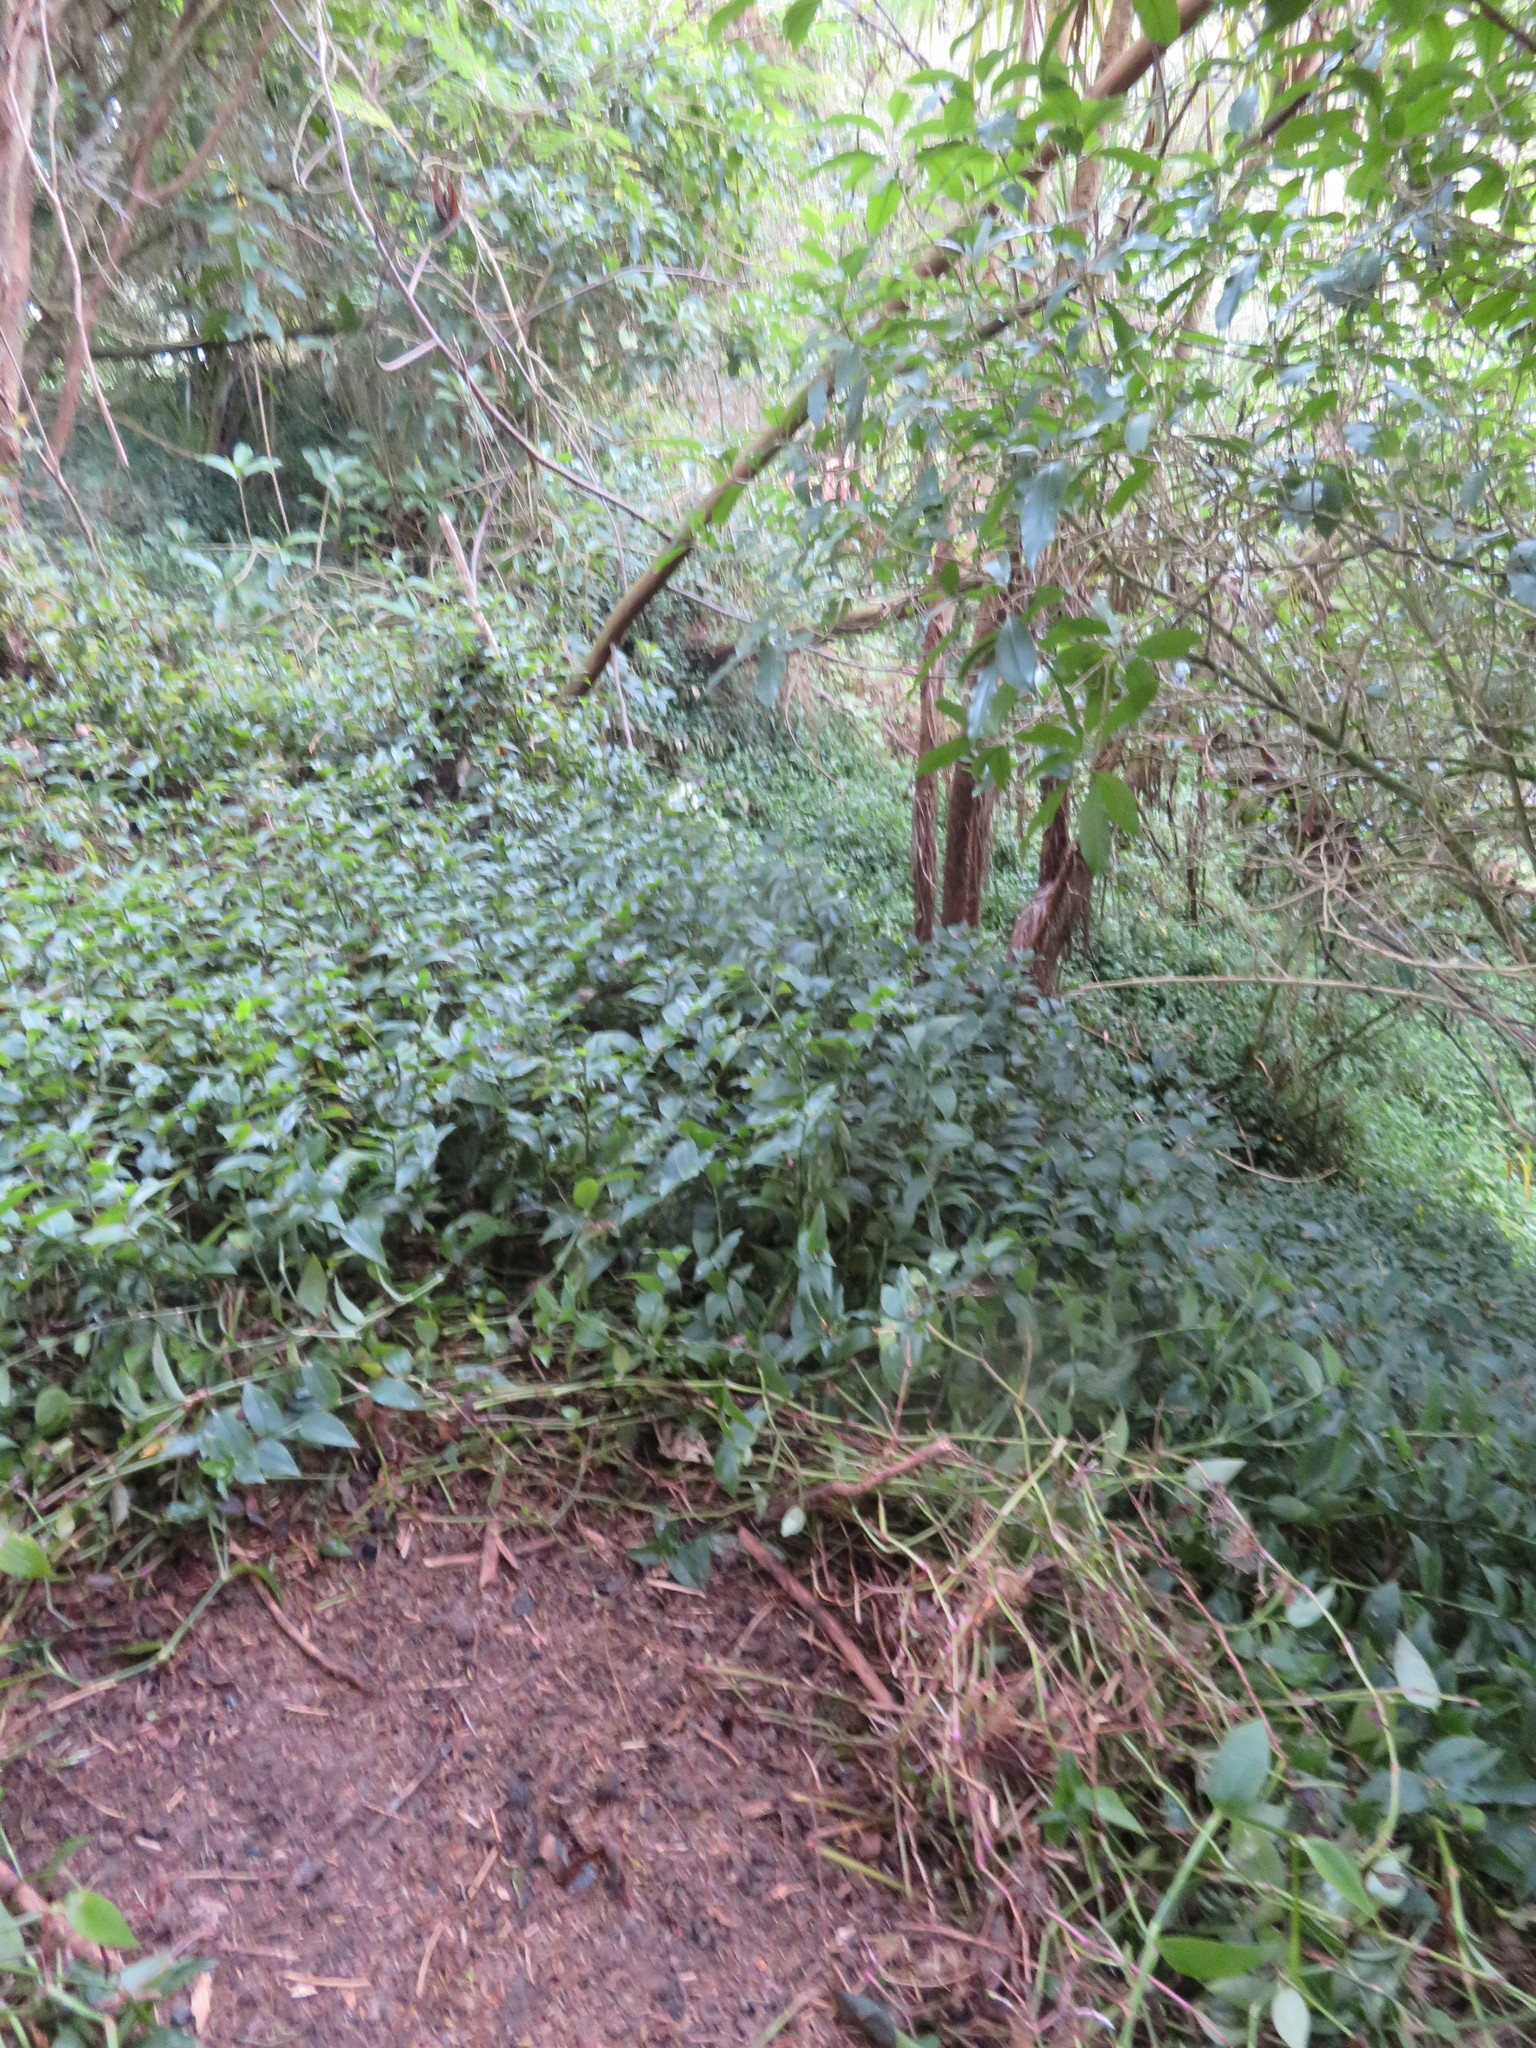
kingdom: Plantae
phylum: Tracheophyta
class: Liliopsida
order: Commelinales
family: Commelinaceae
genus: Tradescantia
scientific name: Tradescantia fluminensis
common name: Wandering-jew
